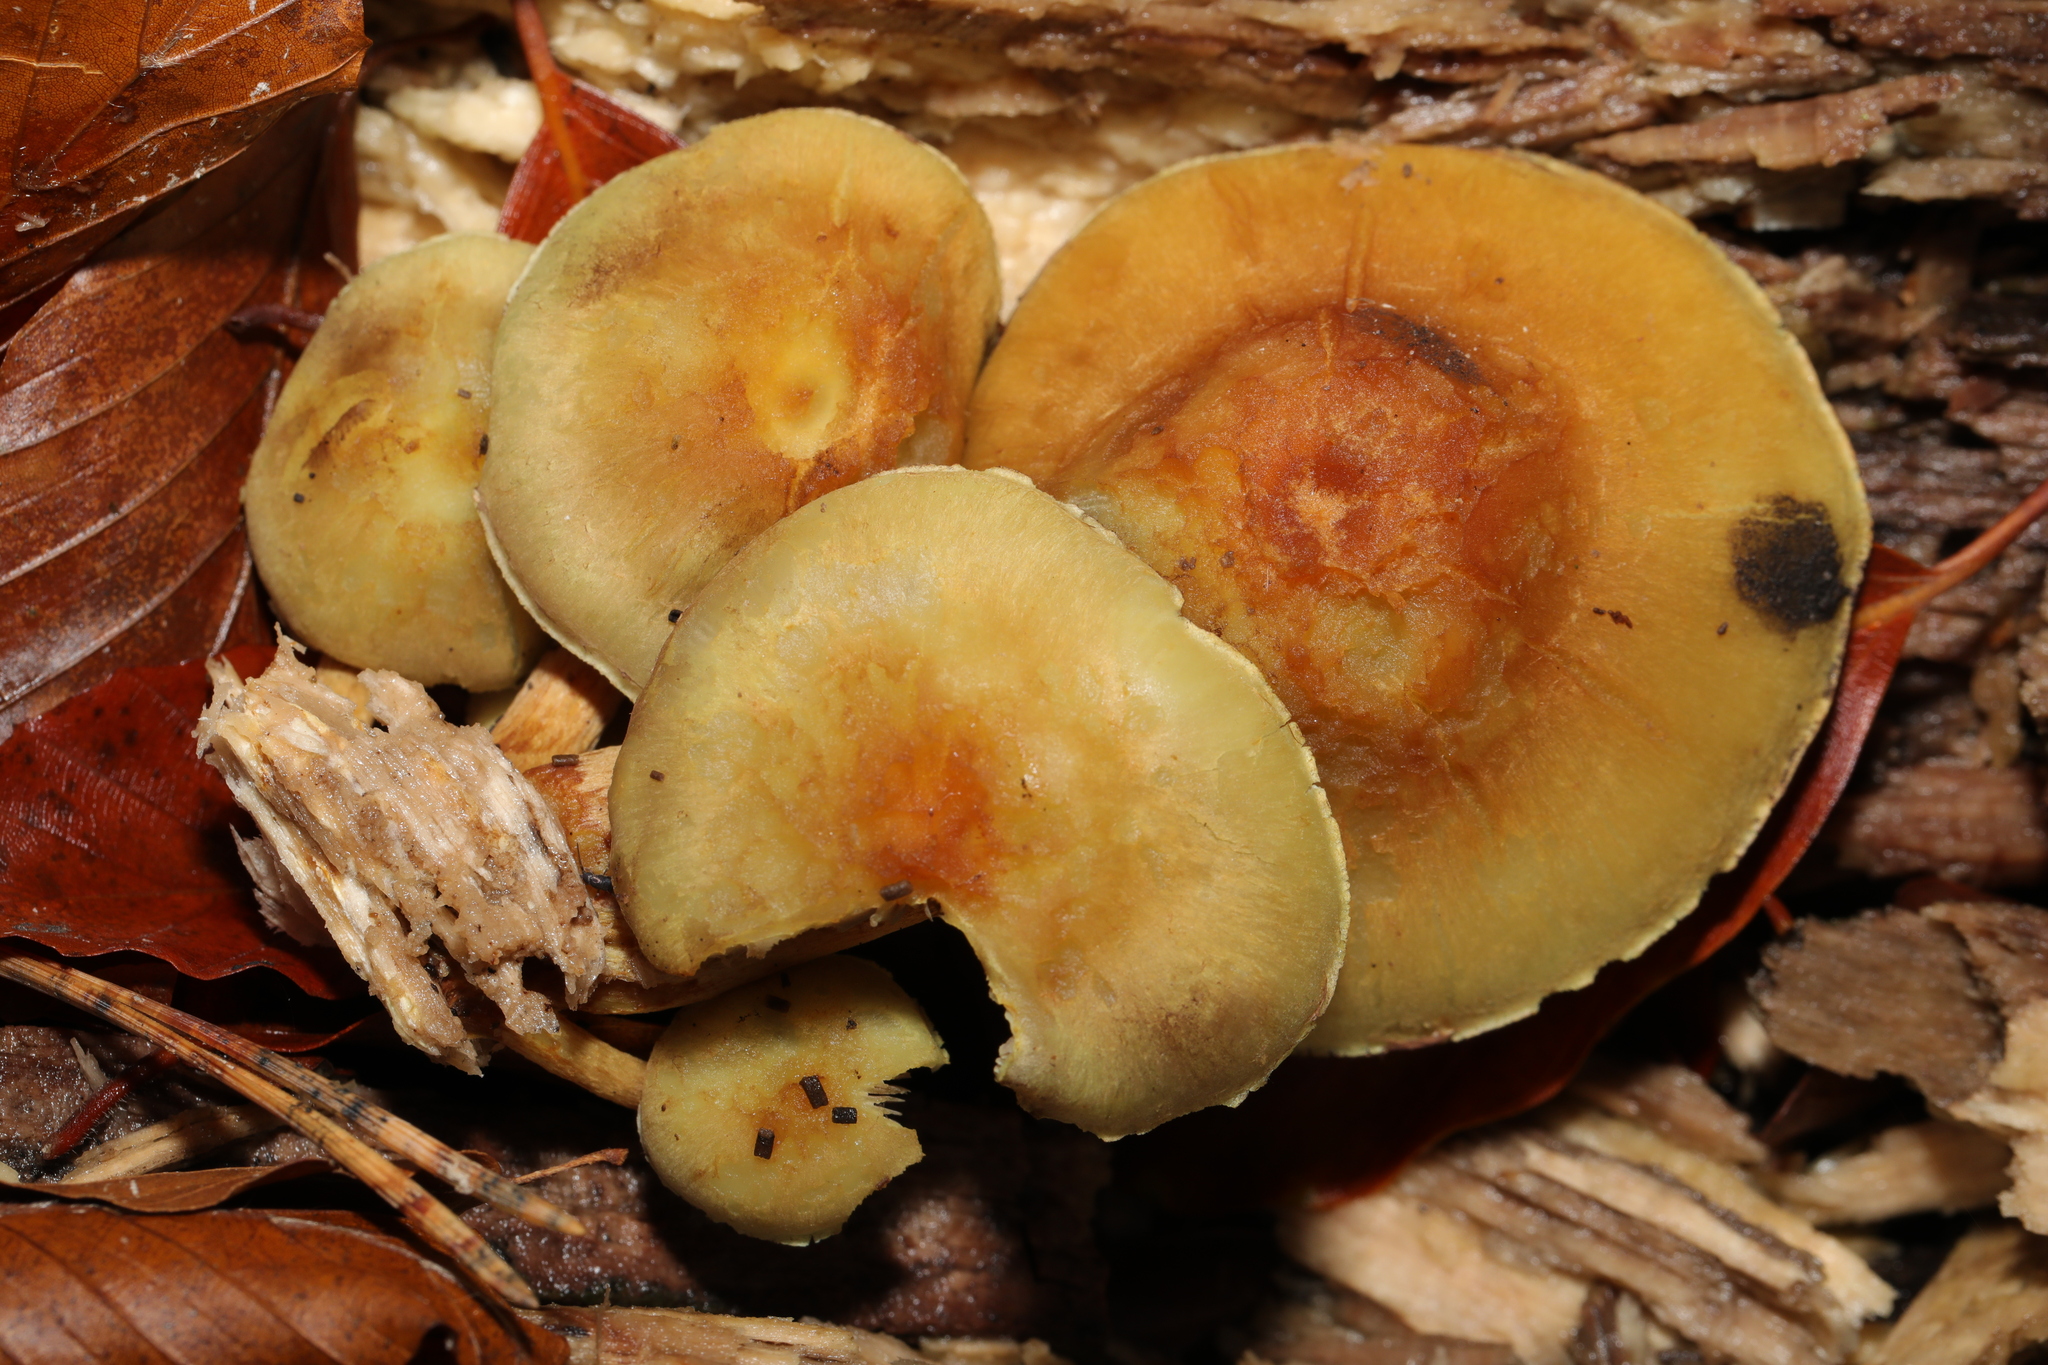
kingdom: Fungi
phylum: Basidiomycota
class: Agaricomycetes
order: Agaricales
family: Strophariaceae
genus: Hypholoma
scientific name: Hypholoma fasciculare
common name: Sulphur tuft
